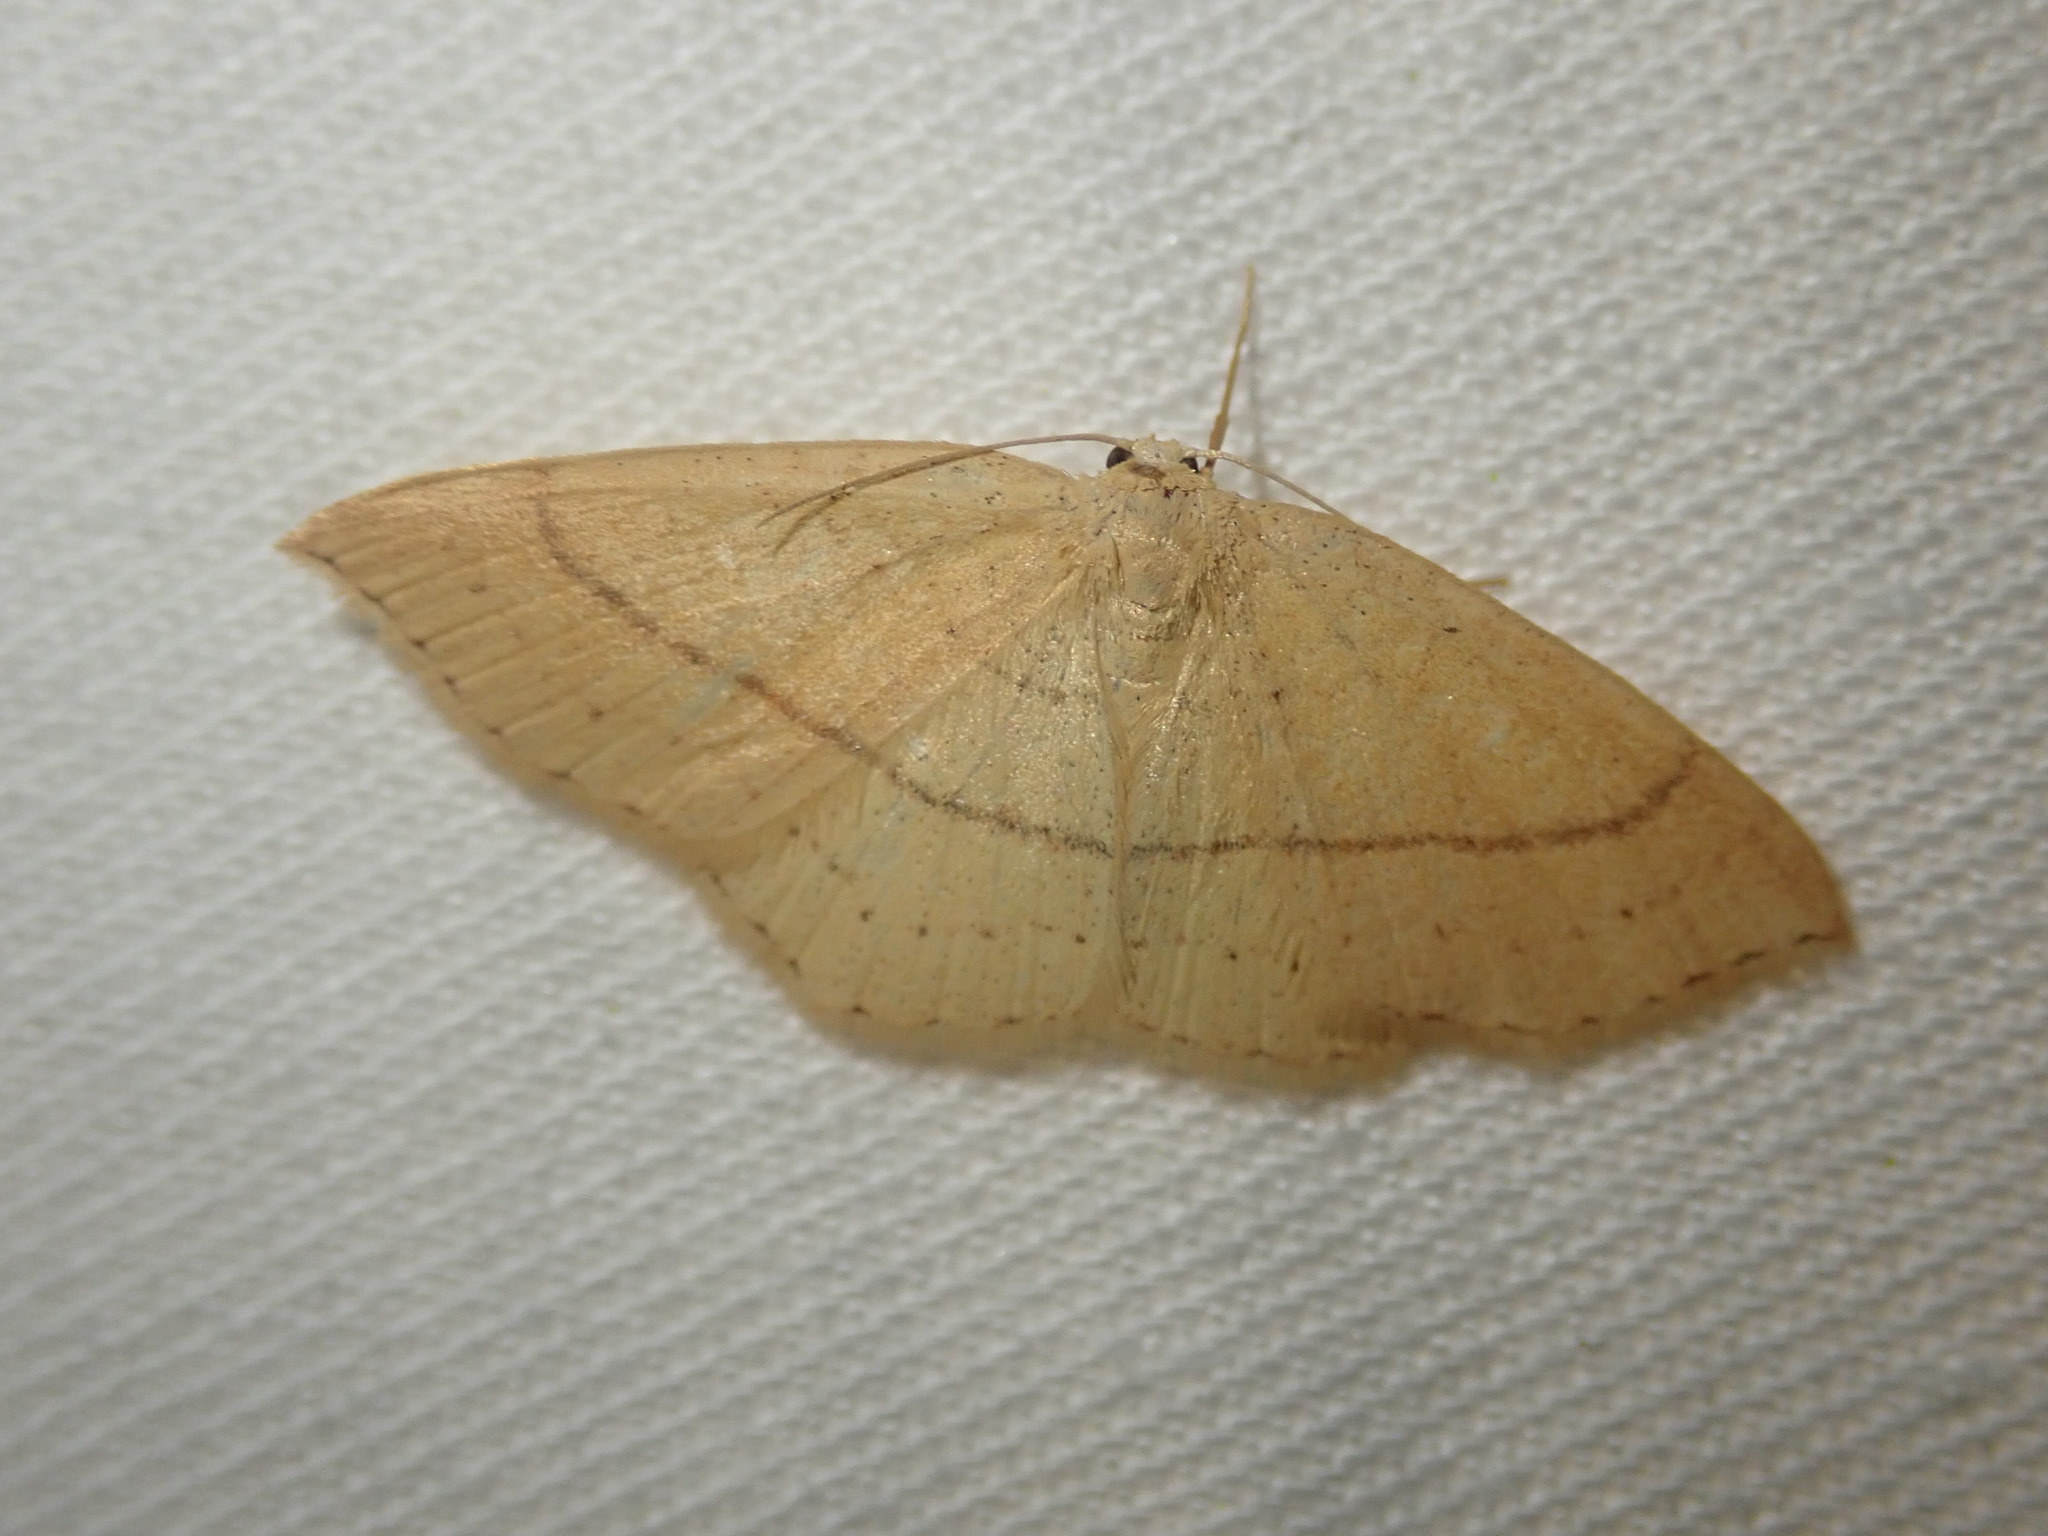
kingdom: Animalia
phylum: Arthropoda
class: Insecta
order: Lepidoptera
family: Geometridae
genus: Cyclophora
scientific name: Cyclophora linearia
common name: Clay triple-lines
